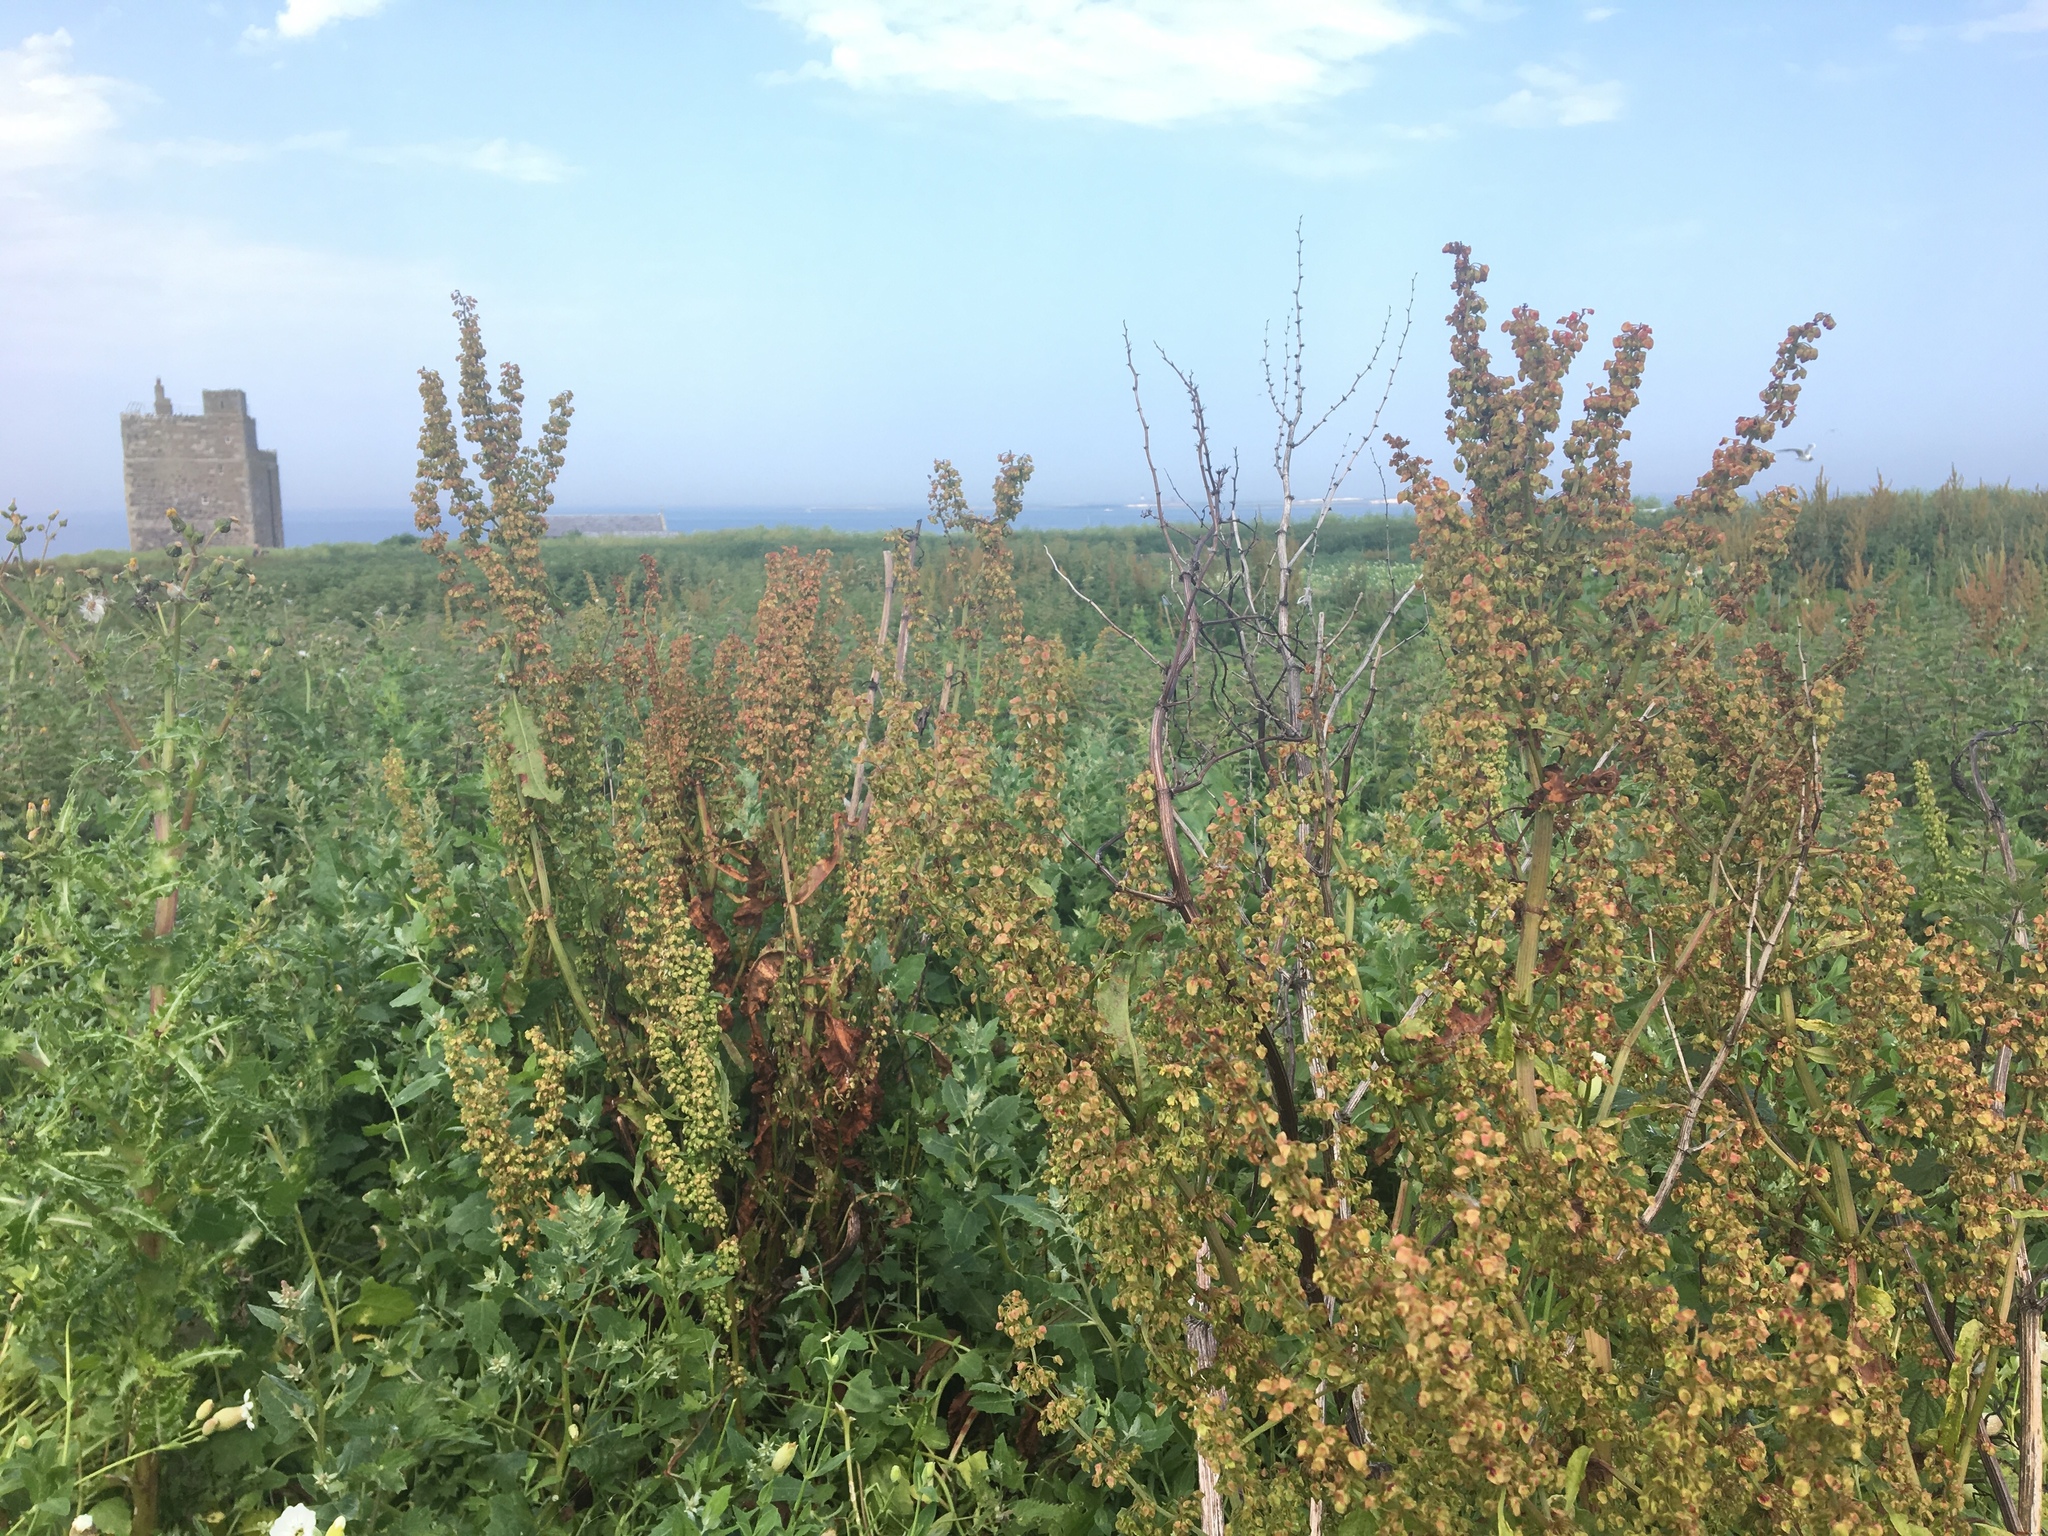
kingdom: Plantae
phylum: Tracheophyta
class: Magnoliopsida
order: Caryophyllales
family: Polygonaceae
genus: Rumex
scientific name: Rumex crispus
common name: Curled dock
